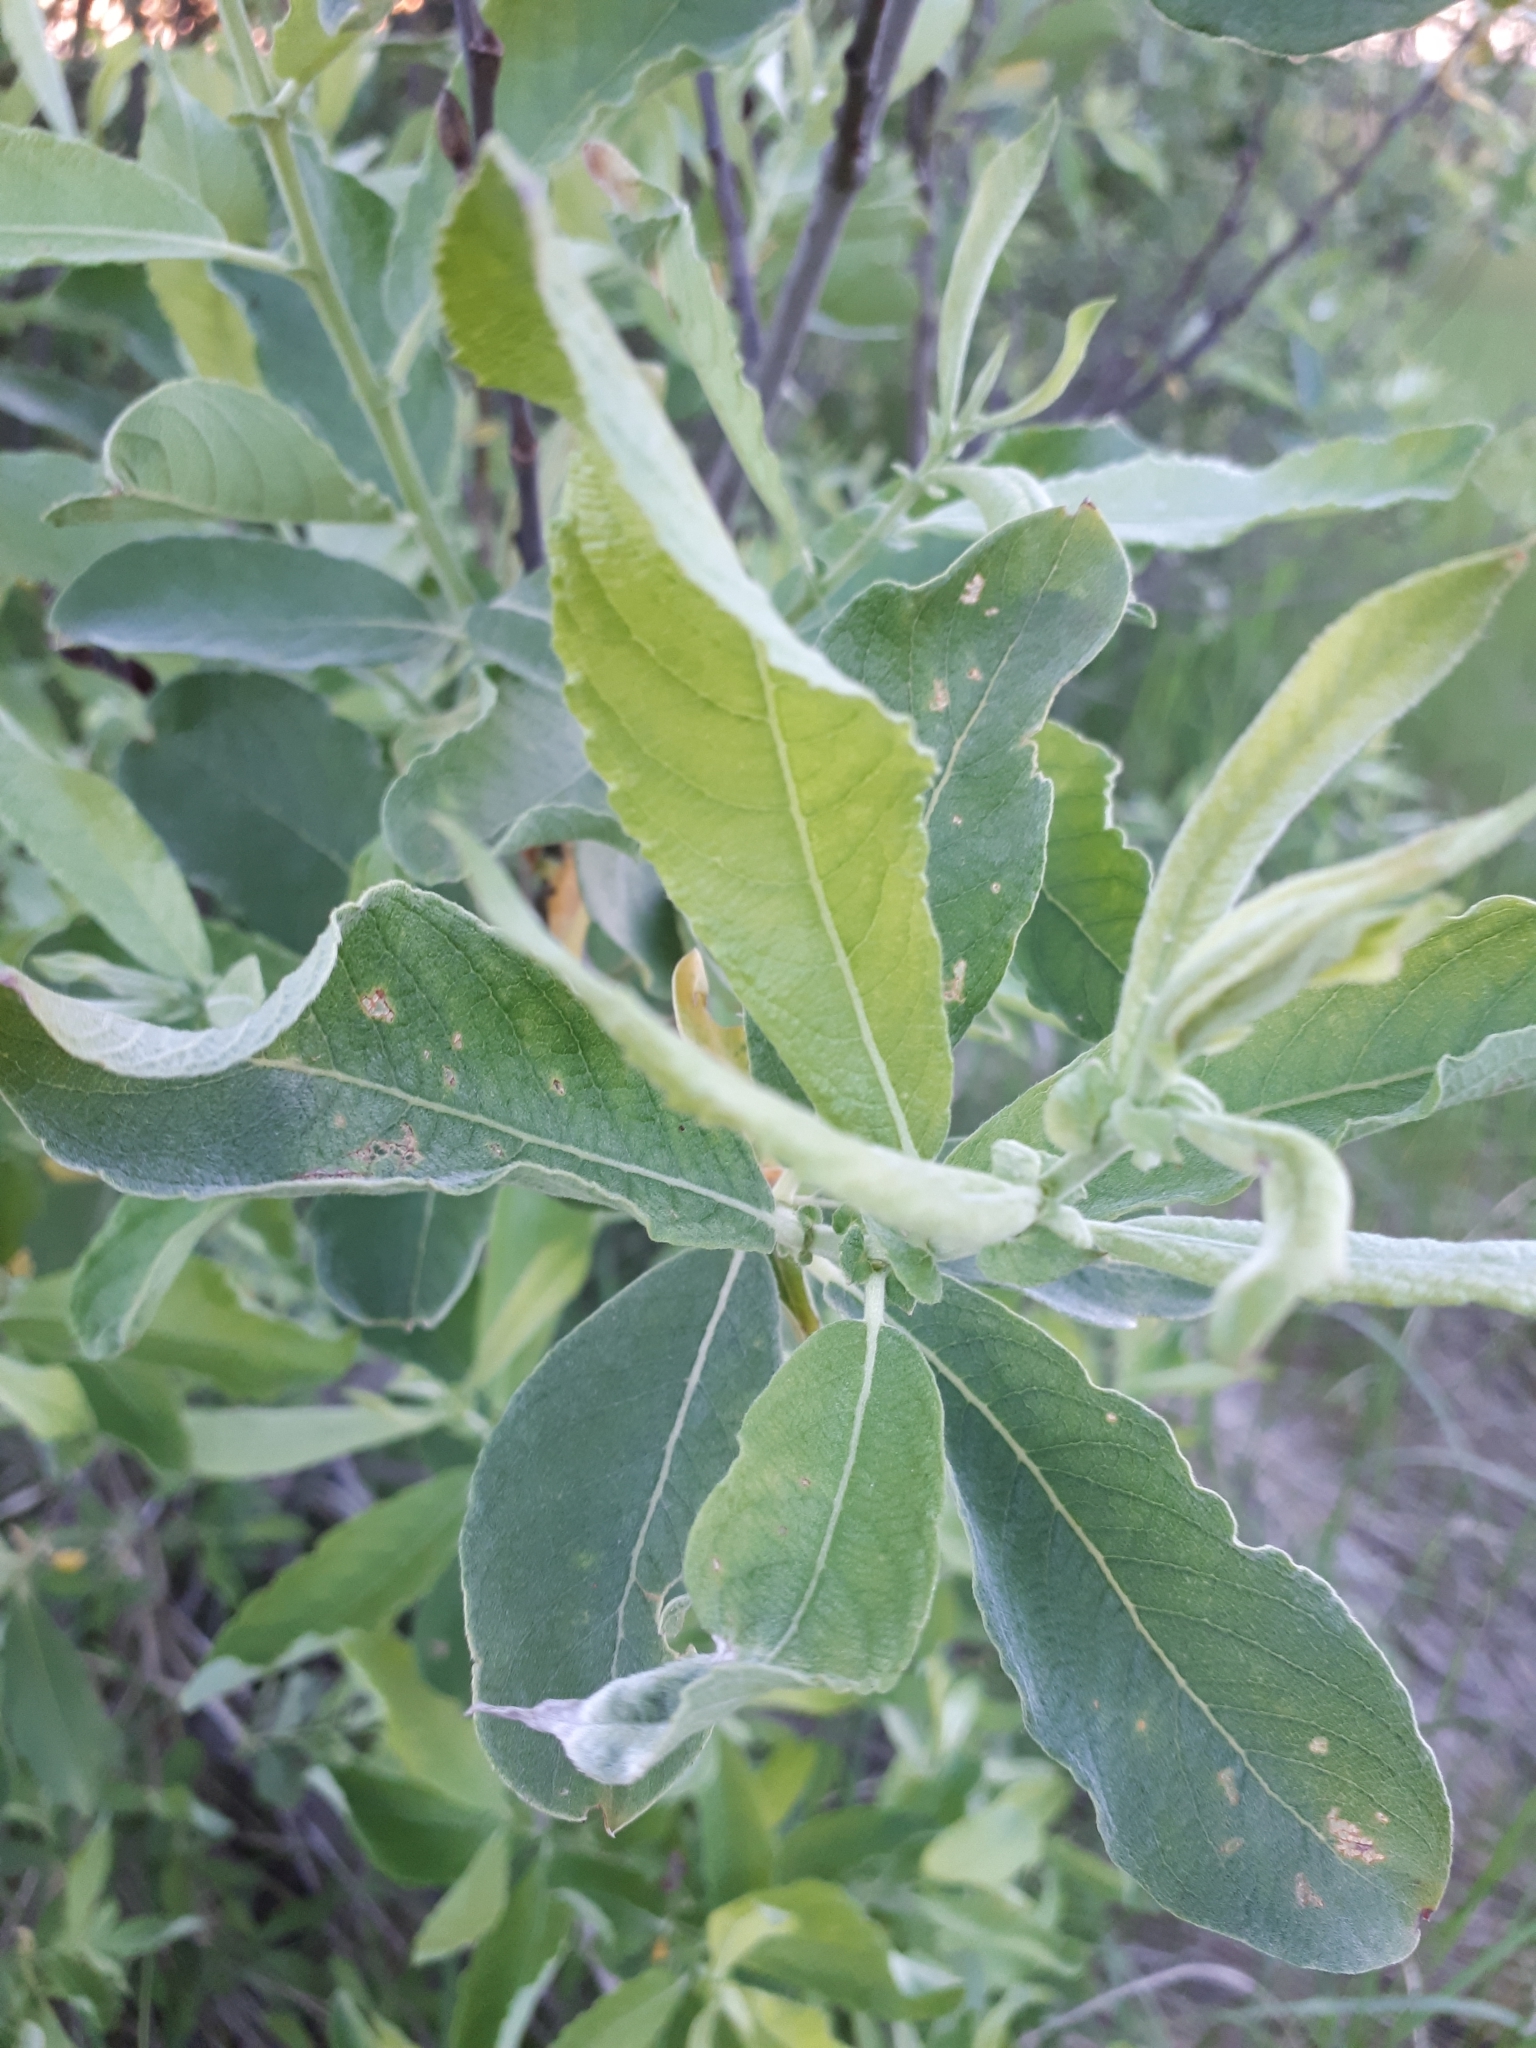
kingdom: Plantae
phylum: Tracheophyta
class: Magnoliopsida
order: Malpighiales
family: Salicaceae
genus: Salix
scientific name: Salix cinerea
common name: Common sallow
